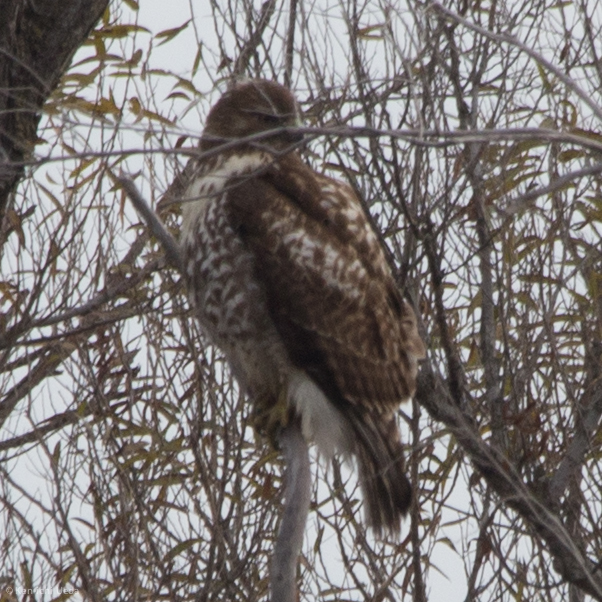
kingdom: Animalia
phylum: Chordata
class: Aves
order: Accipitriformes
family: Accipitridae
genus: Buteo
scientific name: Buteo jamaicensis
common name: Red-tailed hawk
